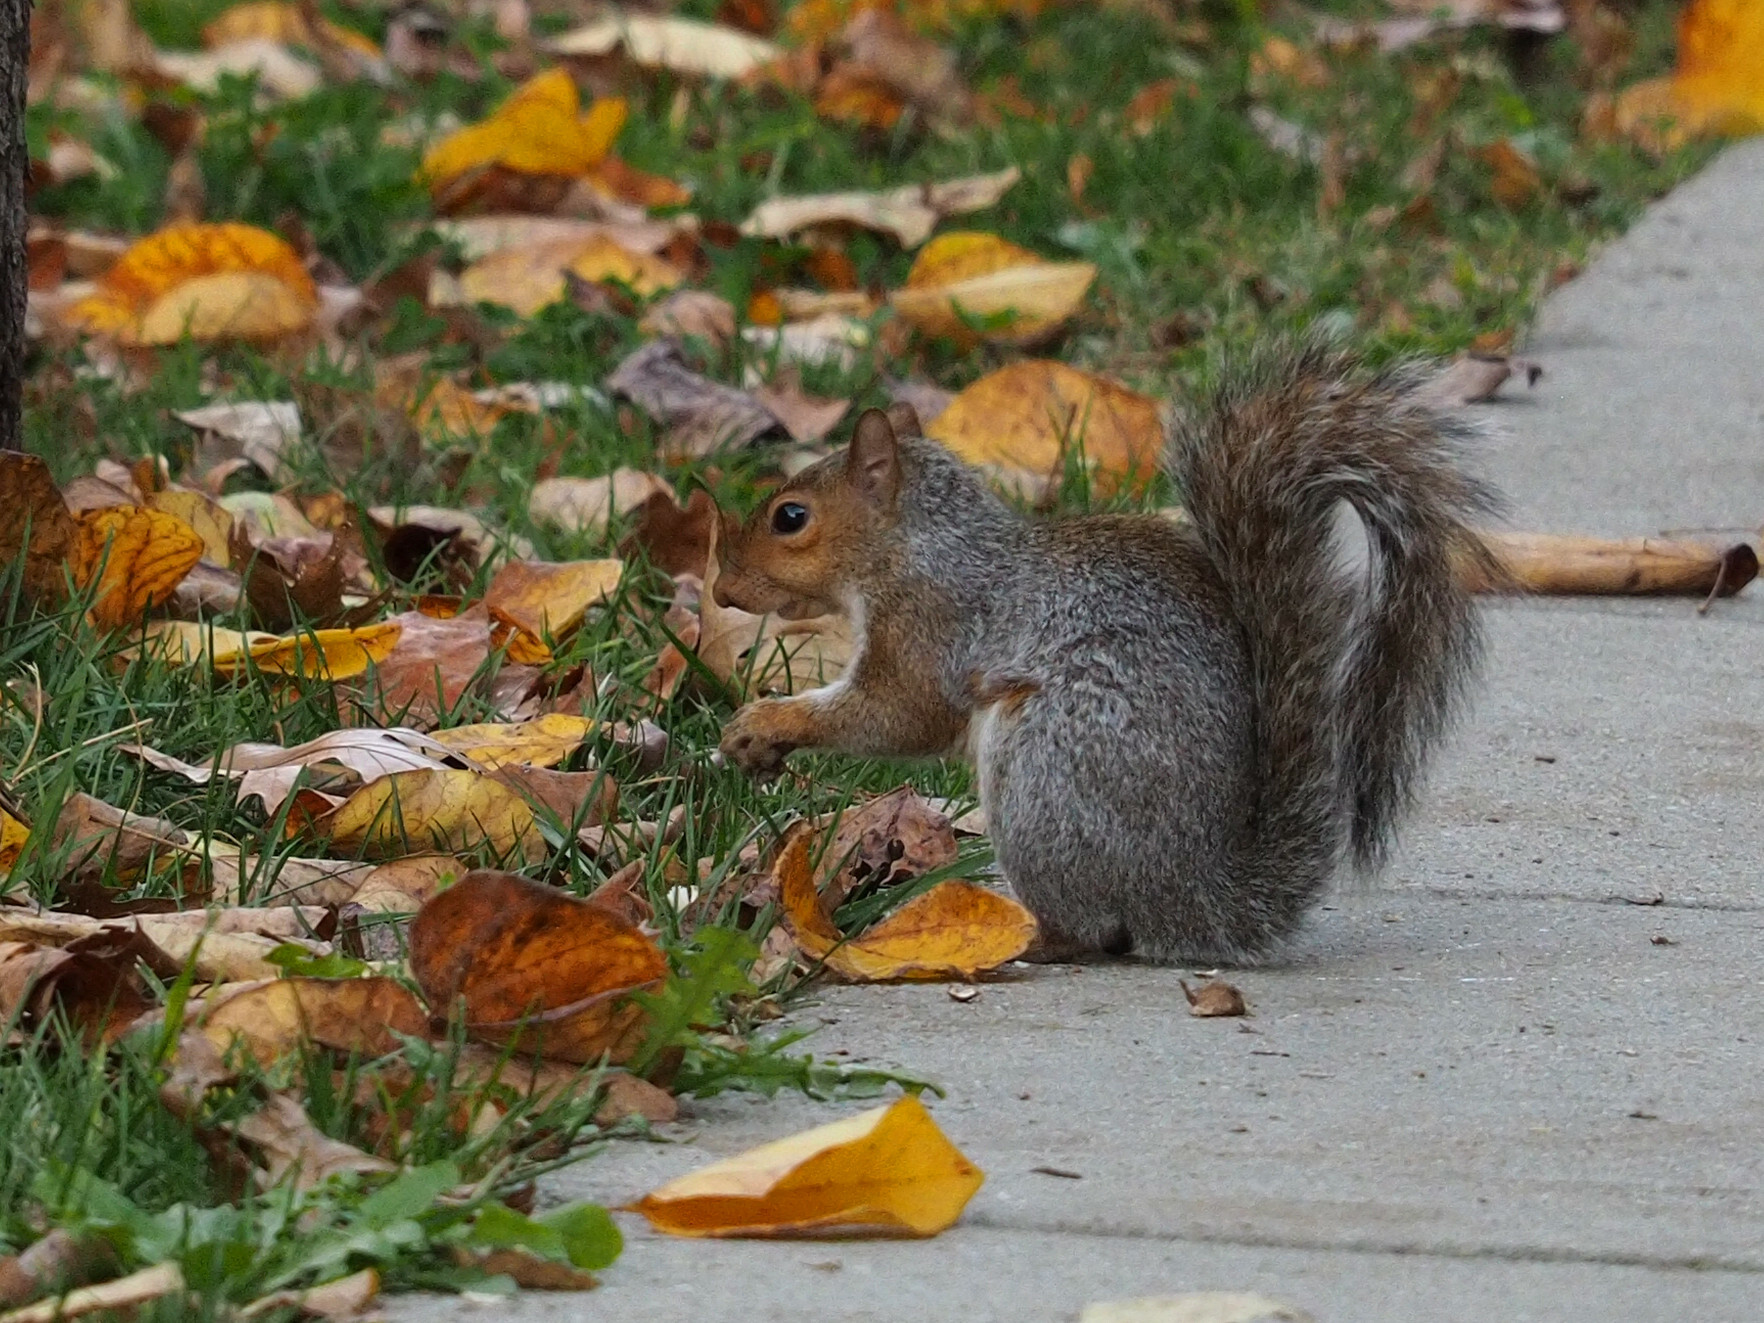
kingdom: Animalia
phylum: Chordata
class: Mammalia
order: Rodentia
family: Sciuridae
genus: Sciurus
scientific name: Sciurus carolinensis
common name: Eastern gray squirrel
